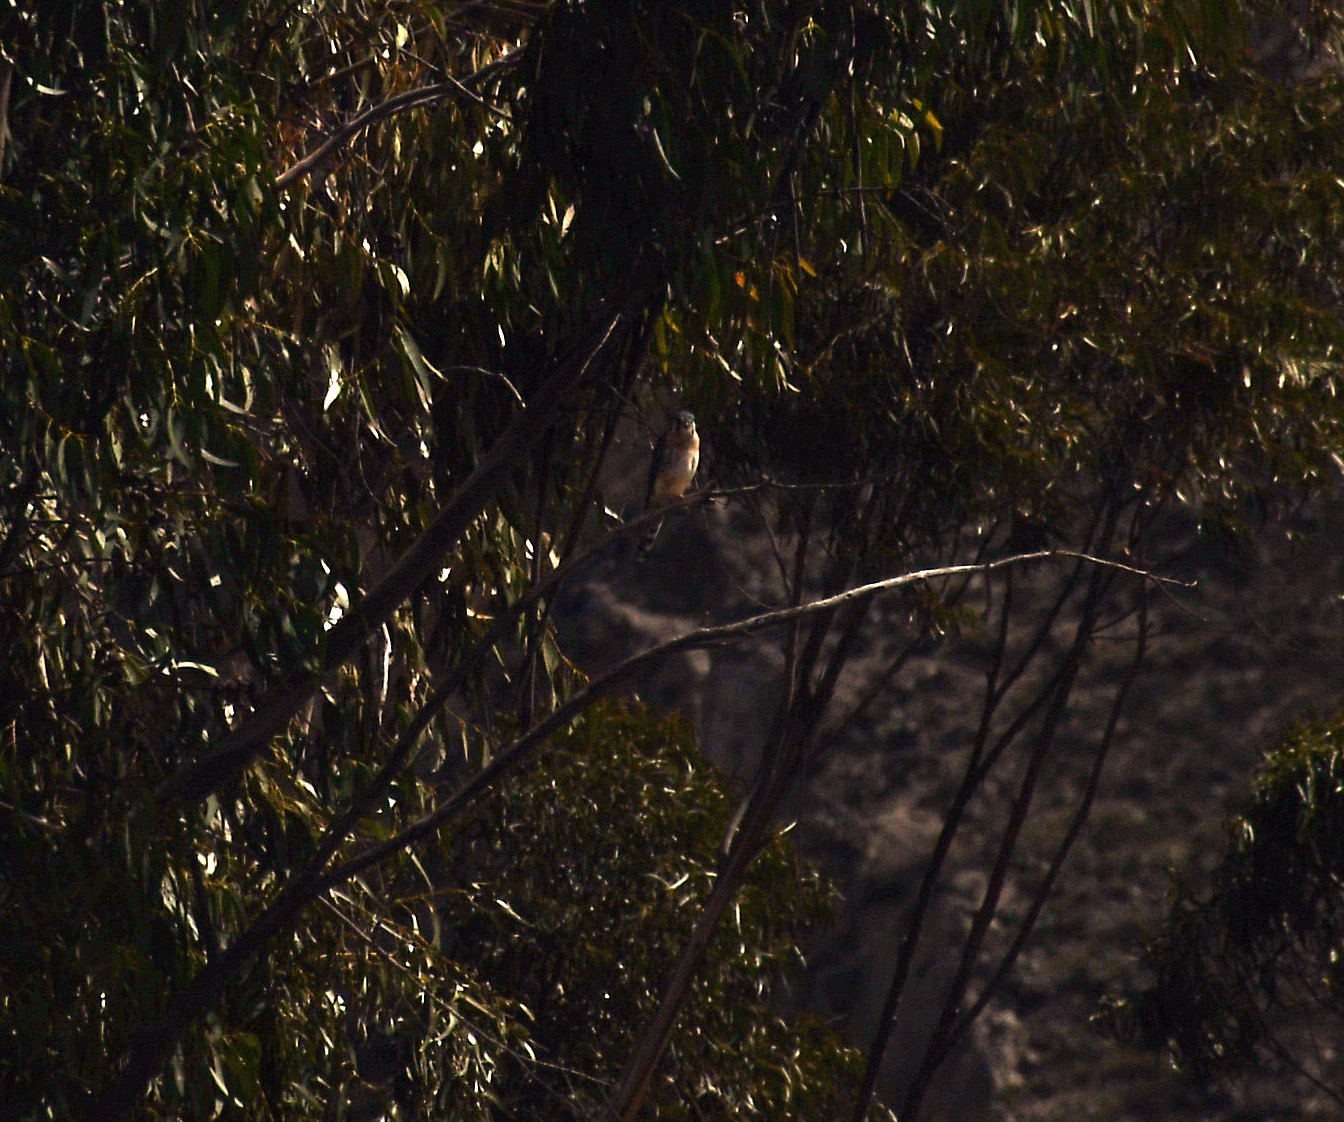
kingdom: Animalia
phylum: Chordata
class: Aves
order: Falconiformes
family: Falconidae
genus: Falco
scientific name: Falco sparverius
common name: American kestrel
